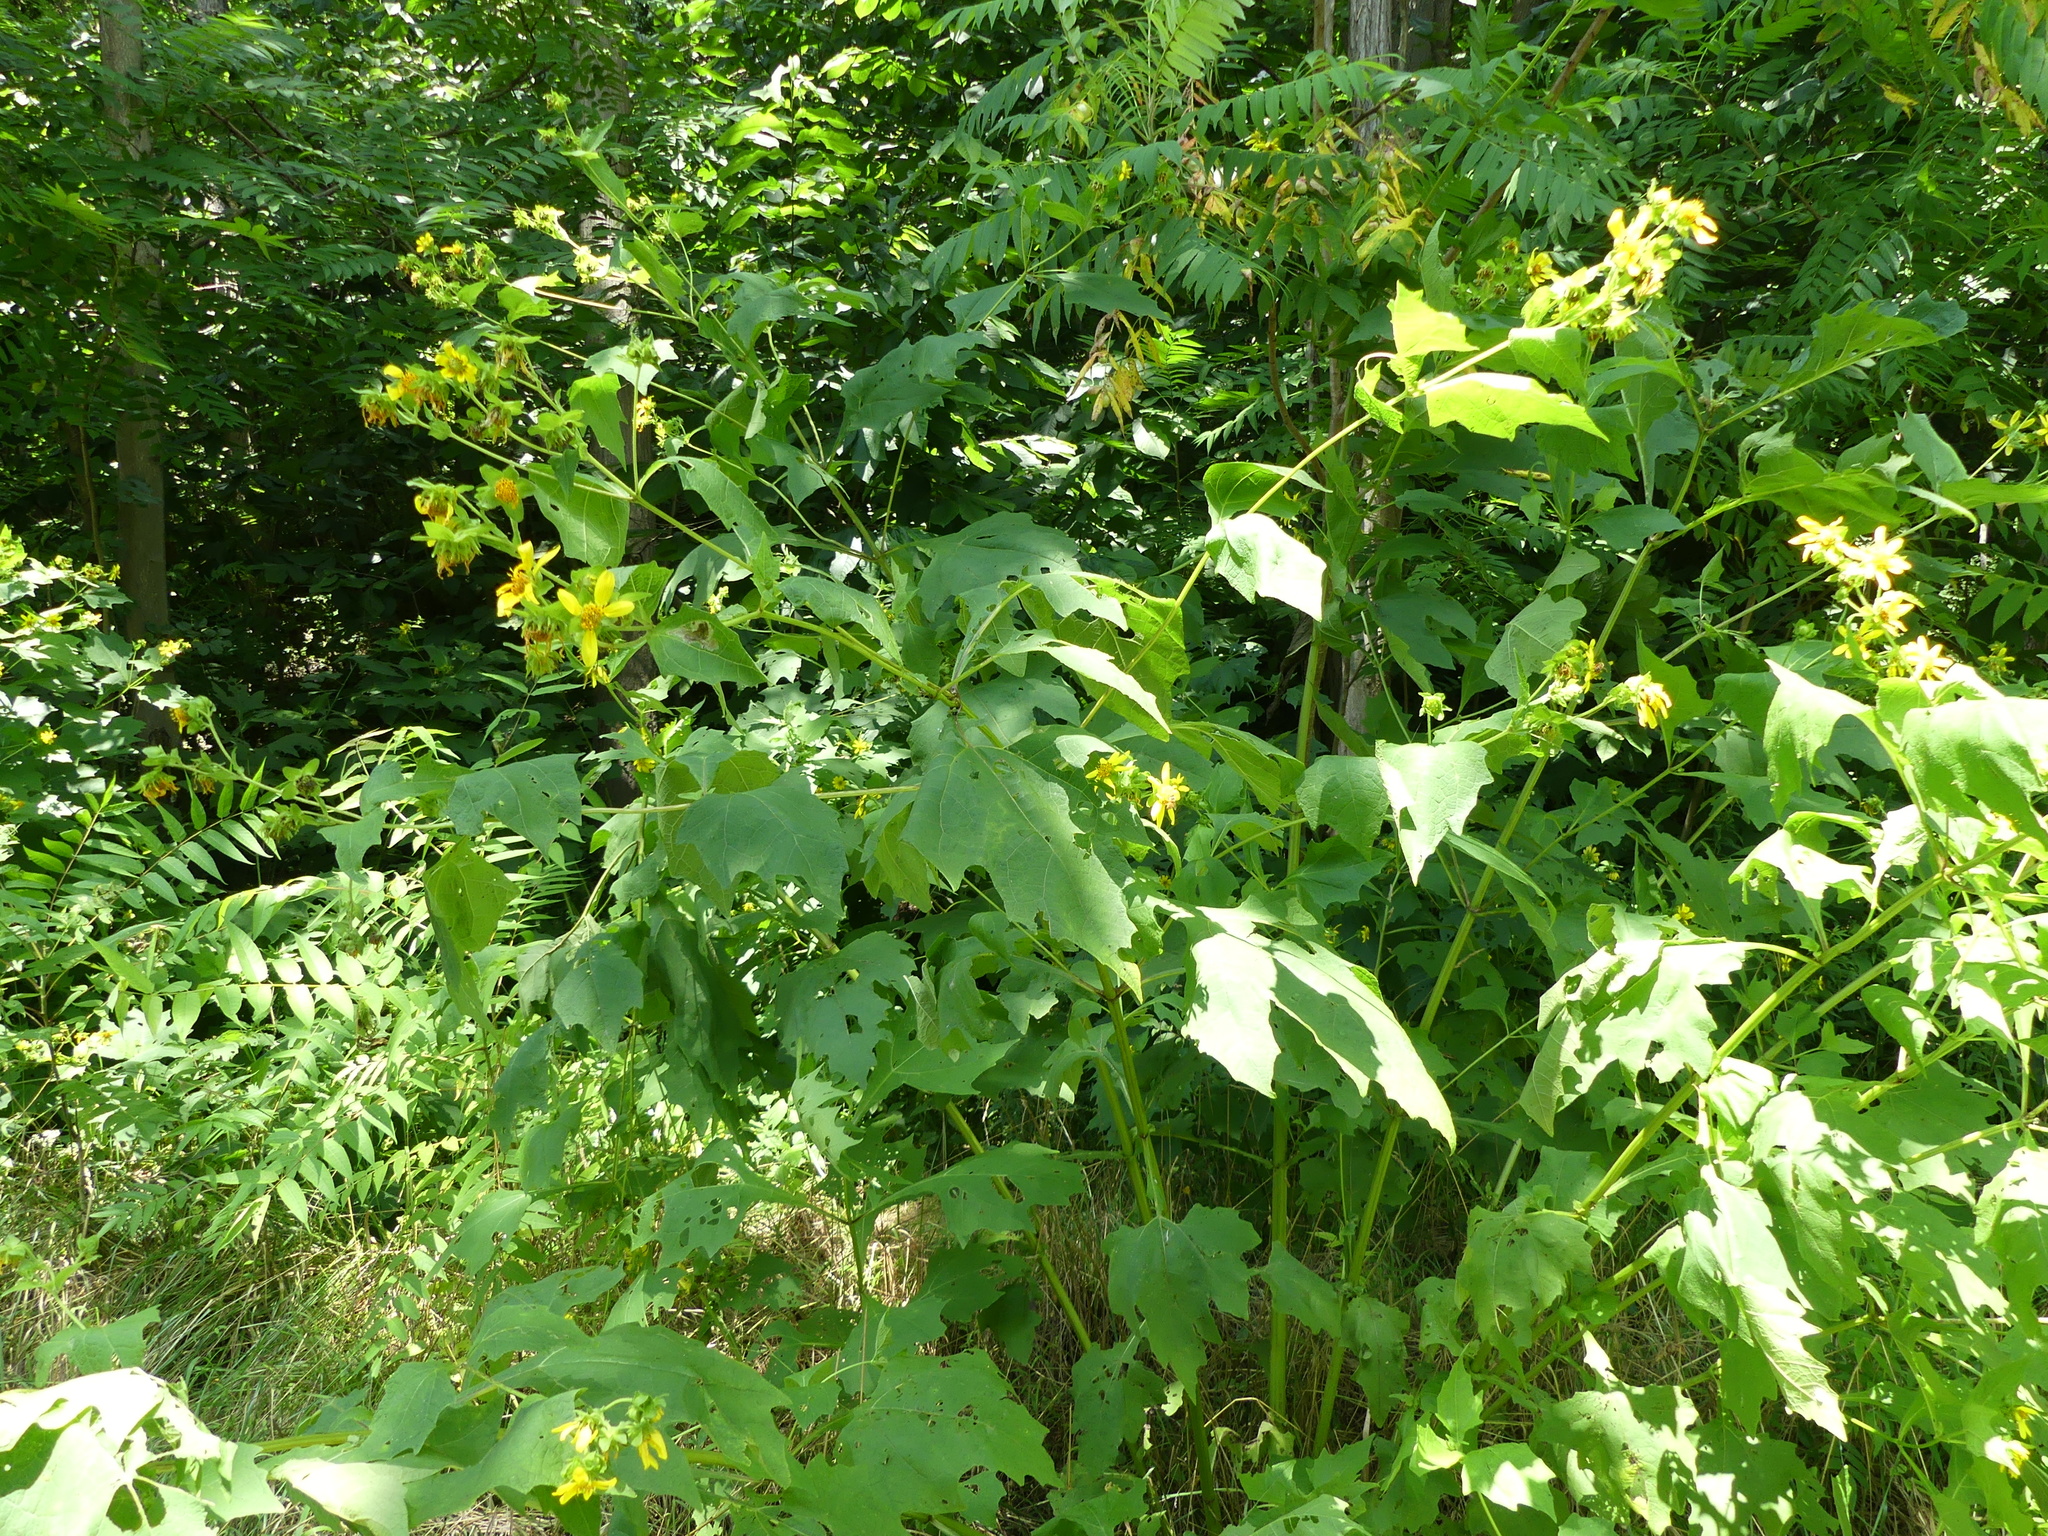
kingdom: Plantae
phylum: Tracheophyta
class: Magnoliopsida
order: Asterales
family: Asteraceae
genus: Smallanthus
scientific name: Smallanthus uvedalia
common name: Bear's-foot
